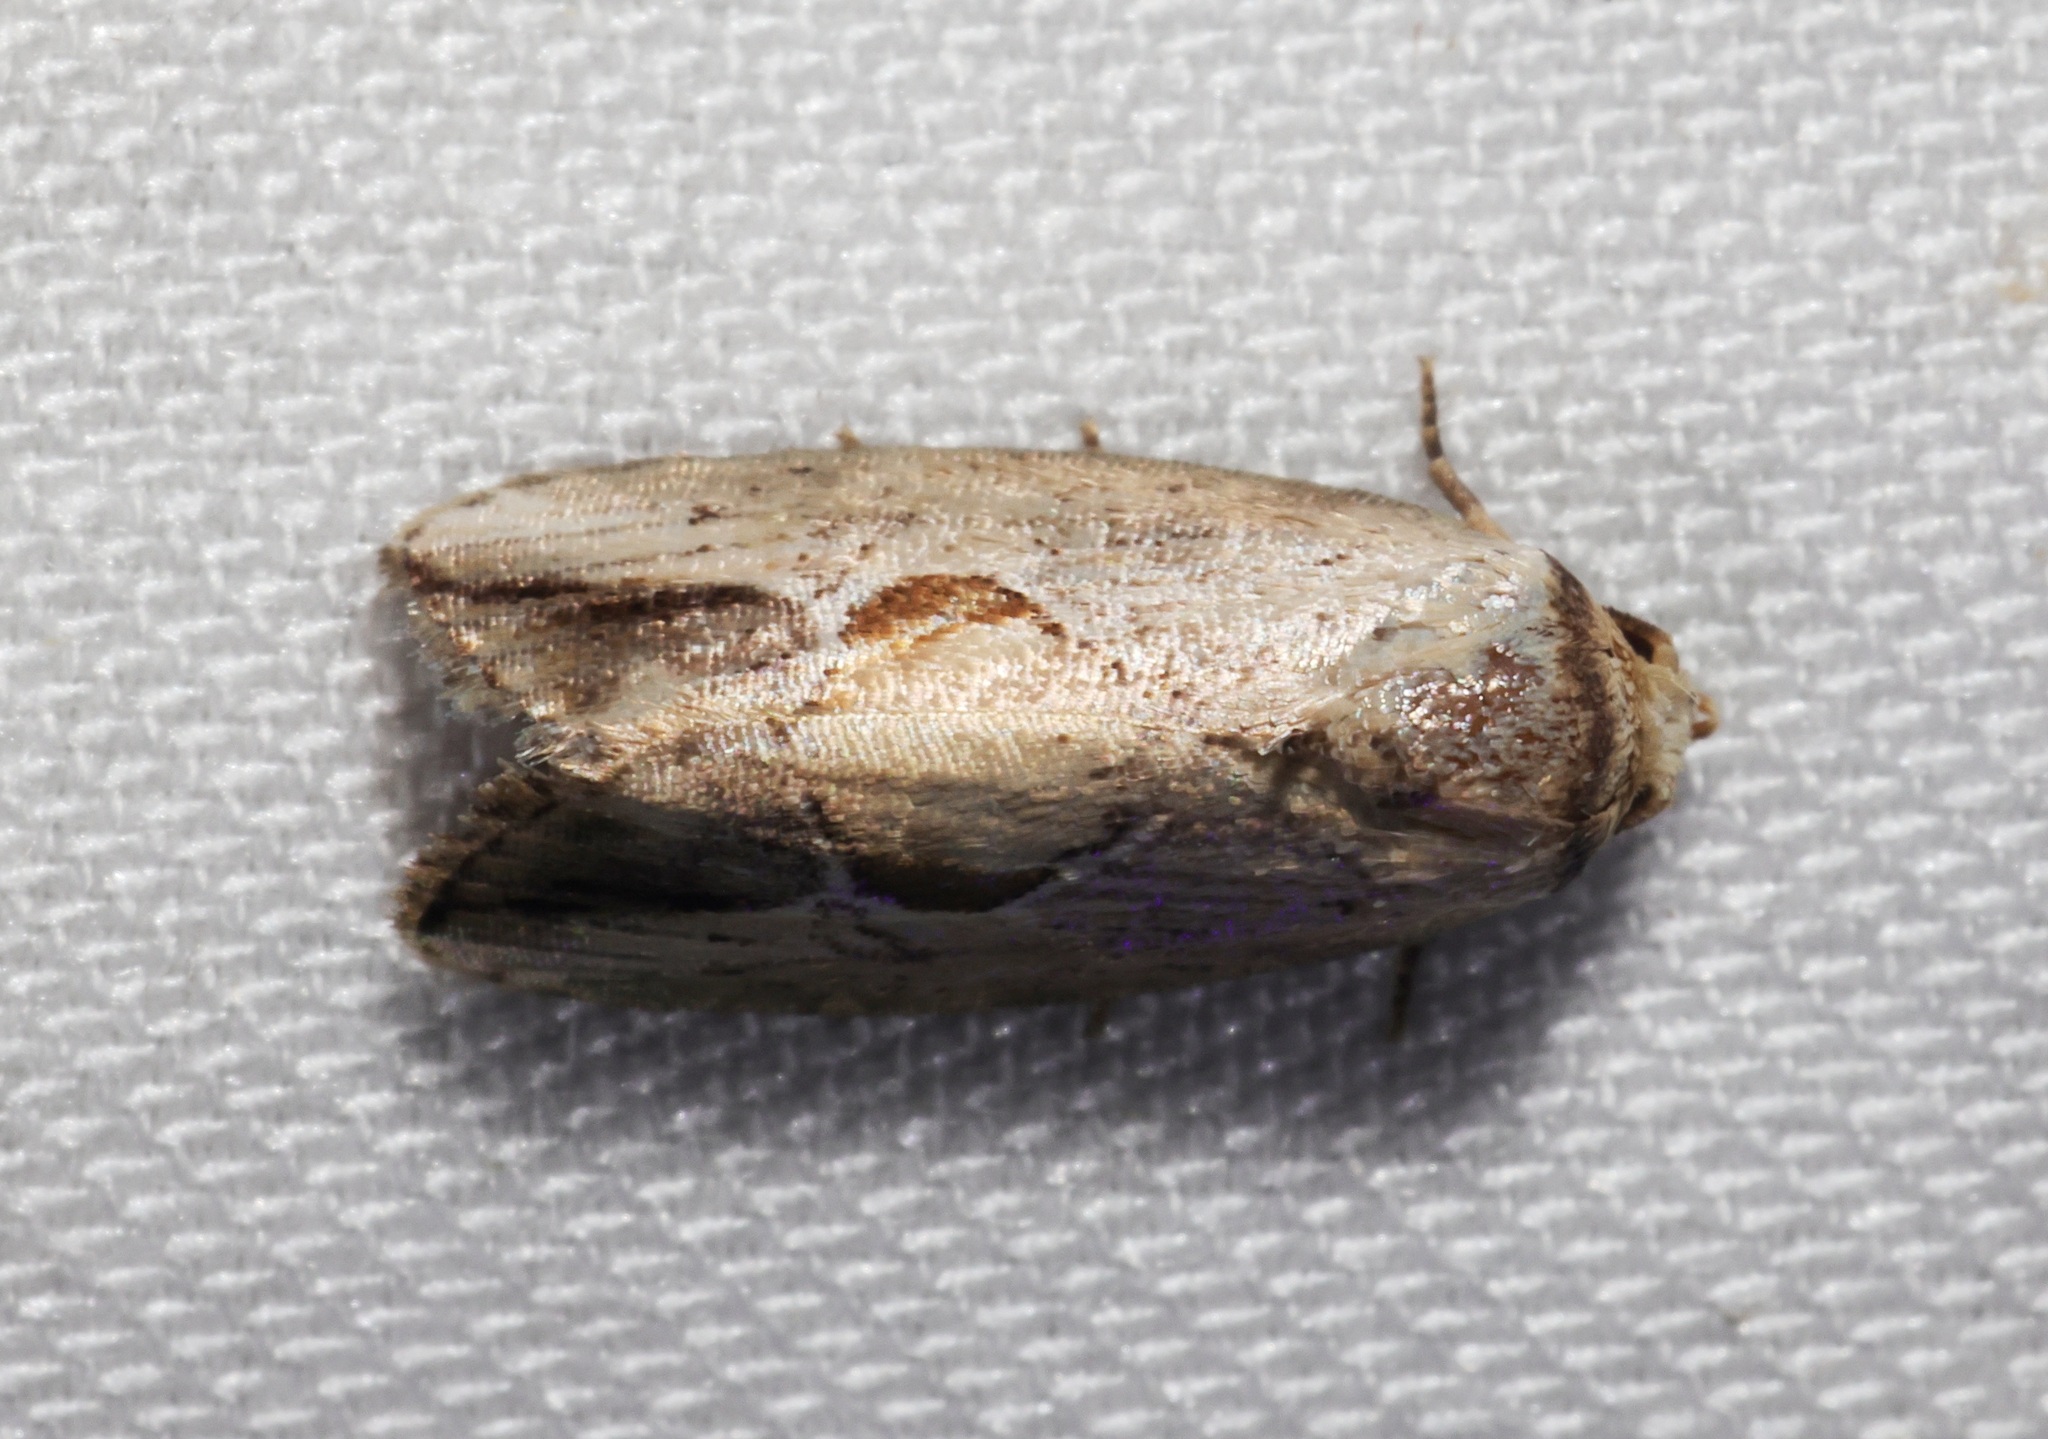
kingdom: Animalia
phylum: Arthropoda
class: Insecta
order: Lepidoptera
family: Noctuidae
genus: Strotihypera
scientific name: Strotihypera macroplaga
